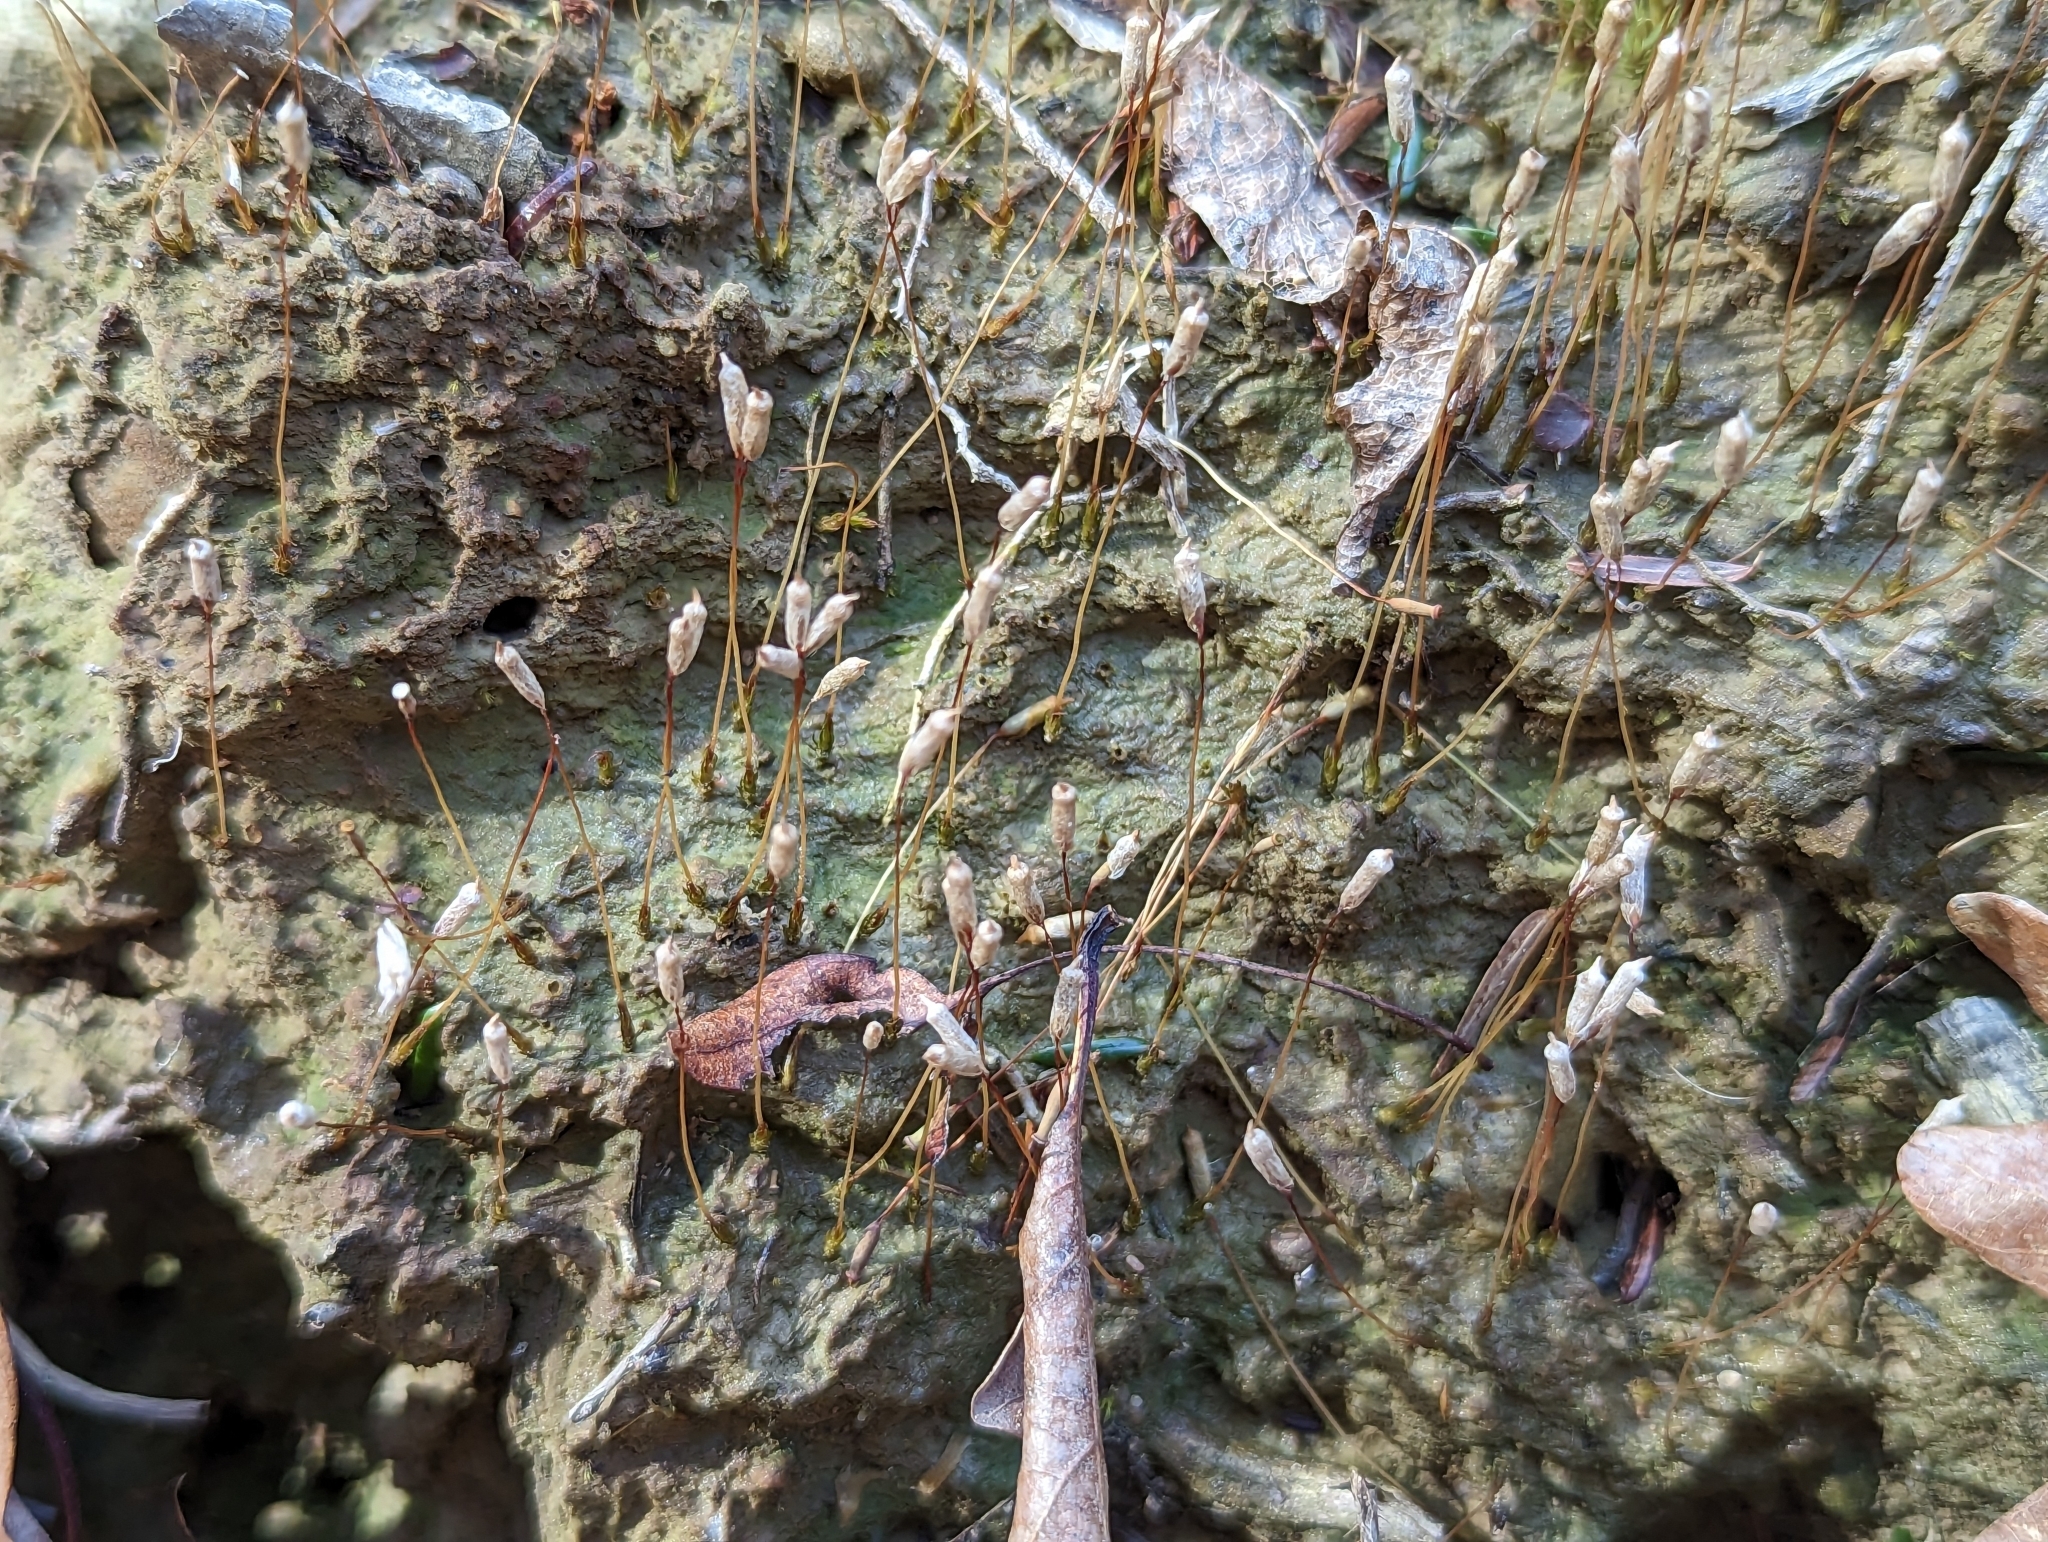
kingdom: Plantae
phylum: Bryophyta
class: Polytrichopsida
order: Polytrichales
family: Polytrichaceae
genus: Pogonatum
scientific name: Pogonatum pensilvanicum
